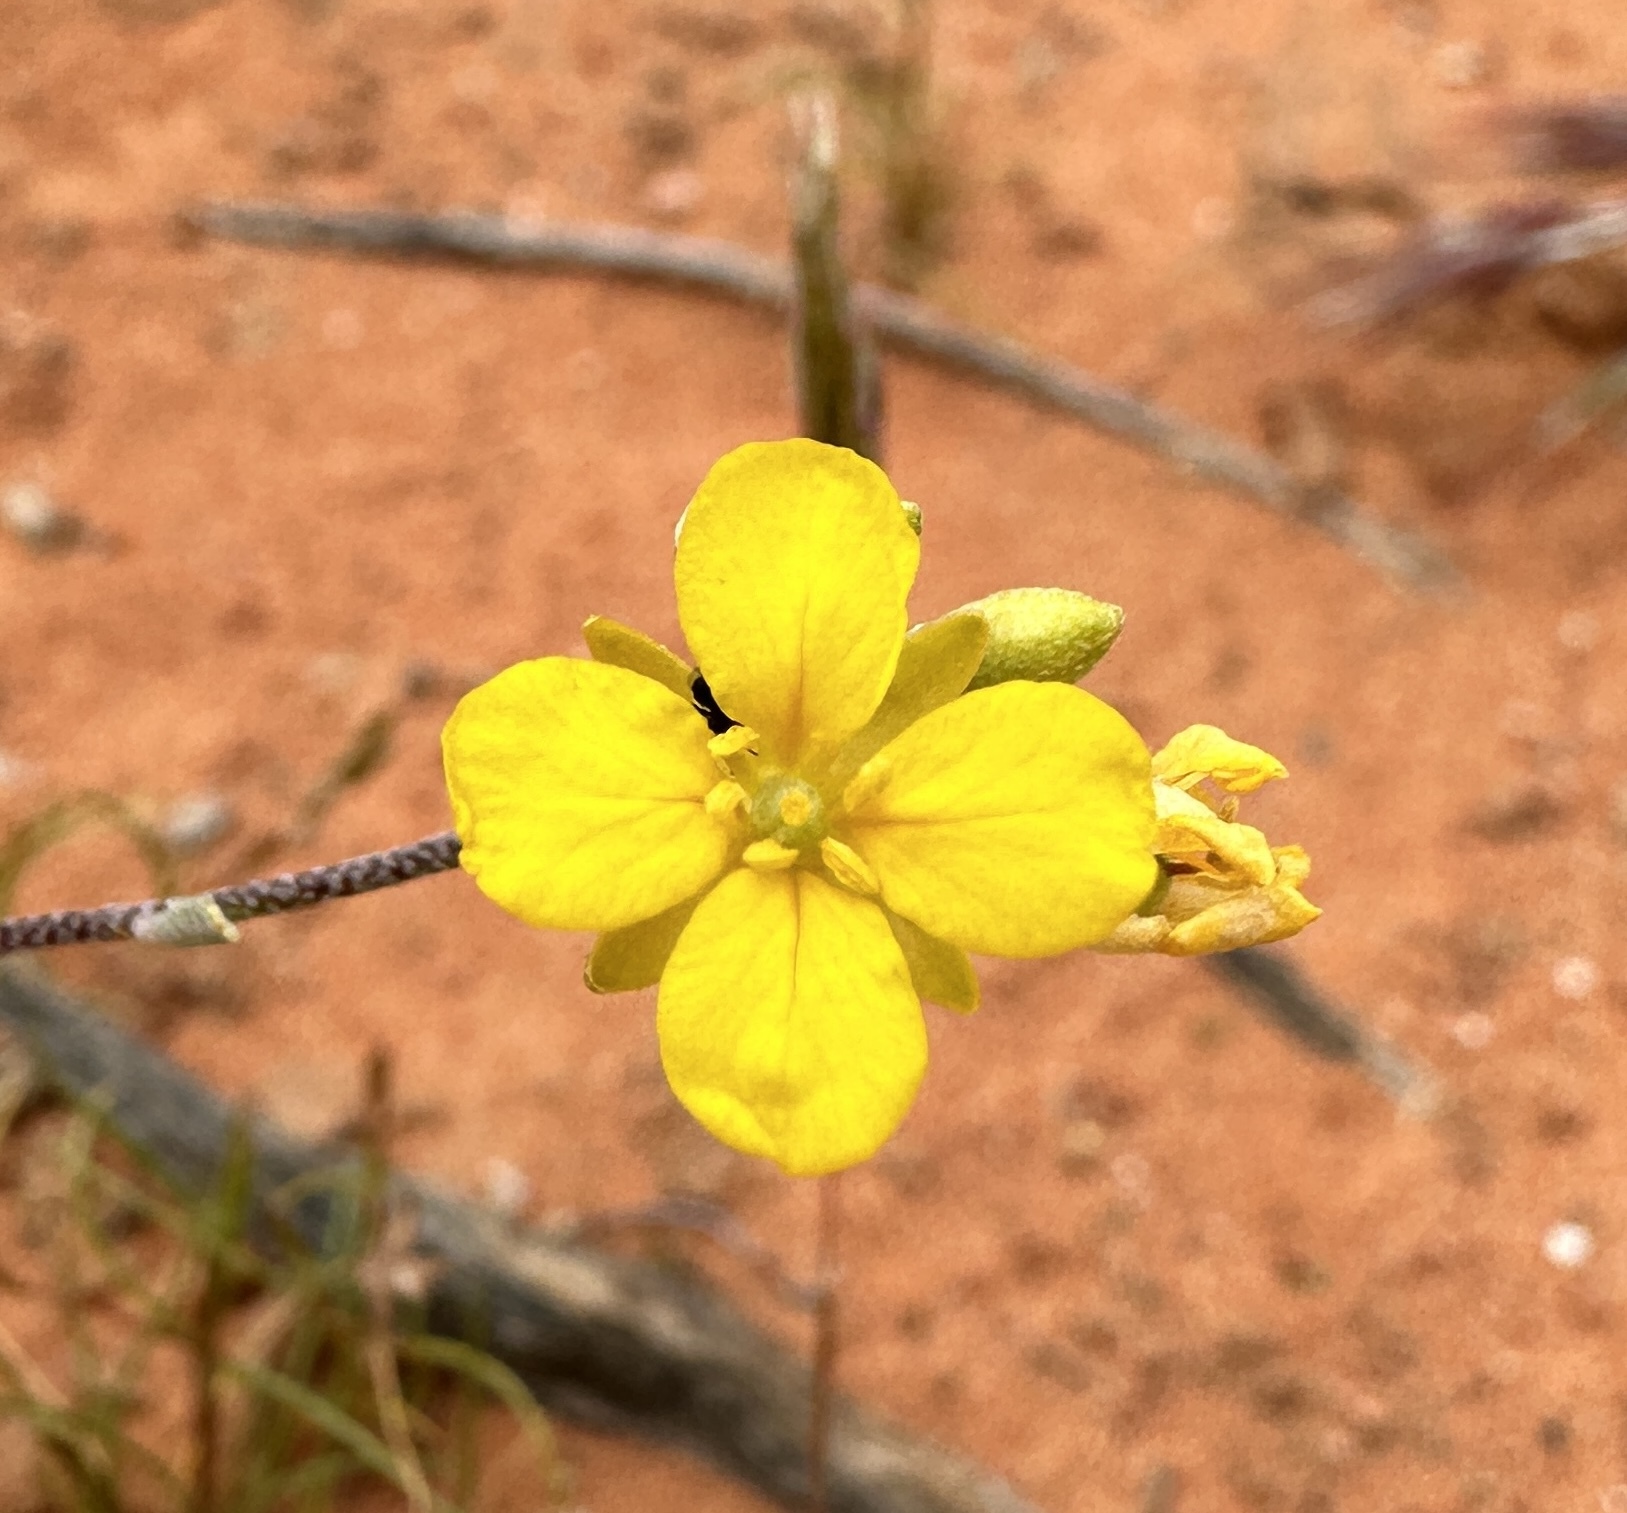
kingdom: Plantae
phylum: Tracheophyta
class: Magnoliopsida
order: Brassicales
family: Brassicaceae
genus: Physaria
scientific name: Physaria tenella
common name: Moapa bladderpod
